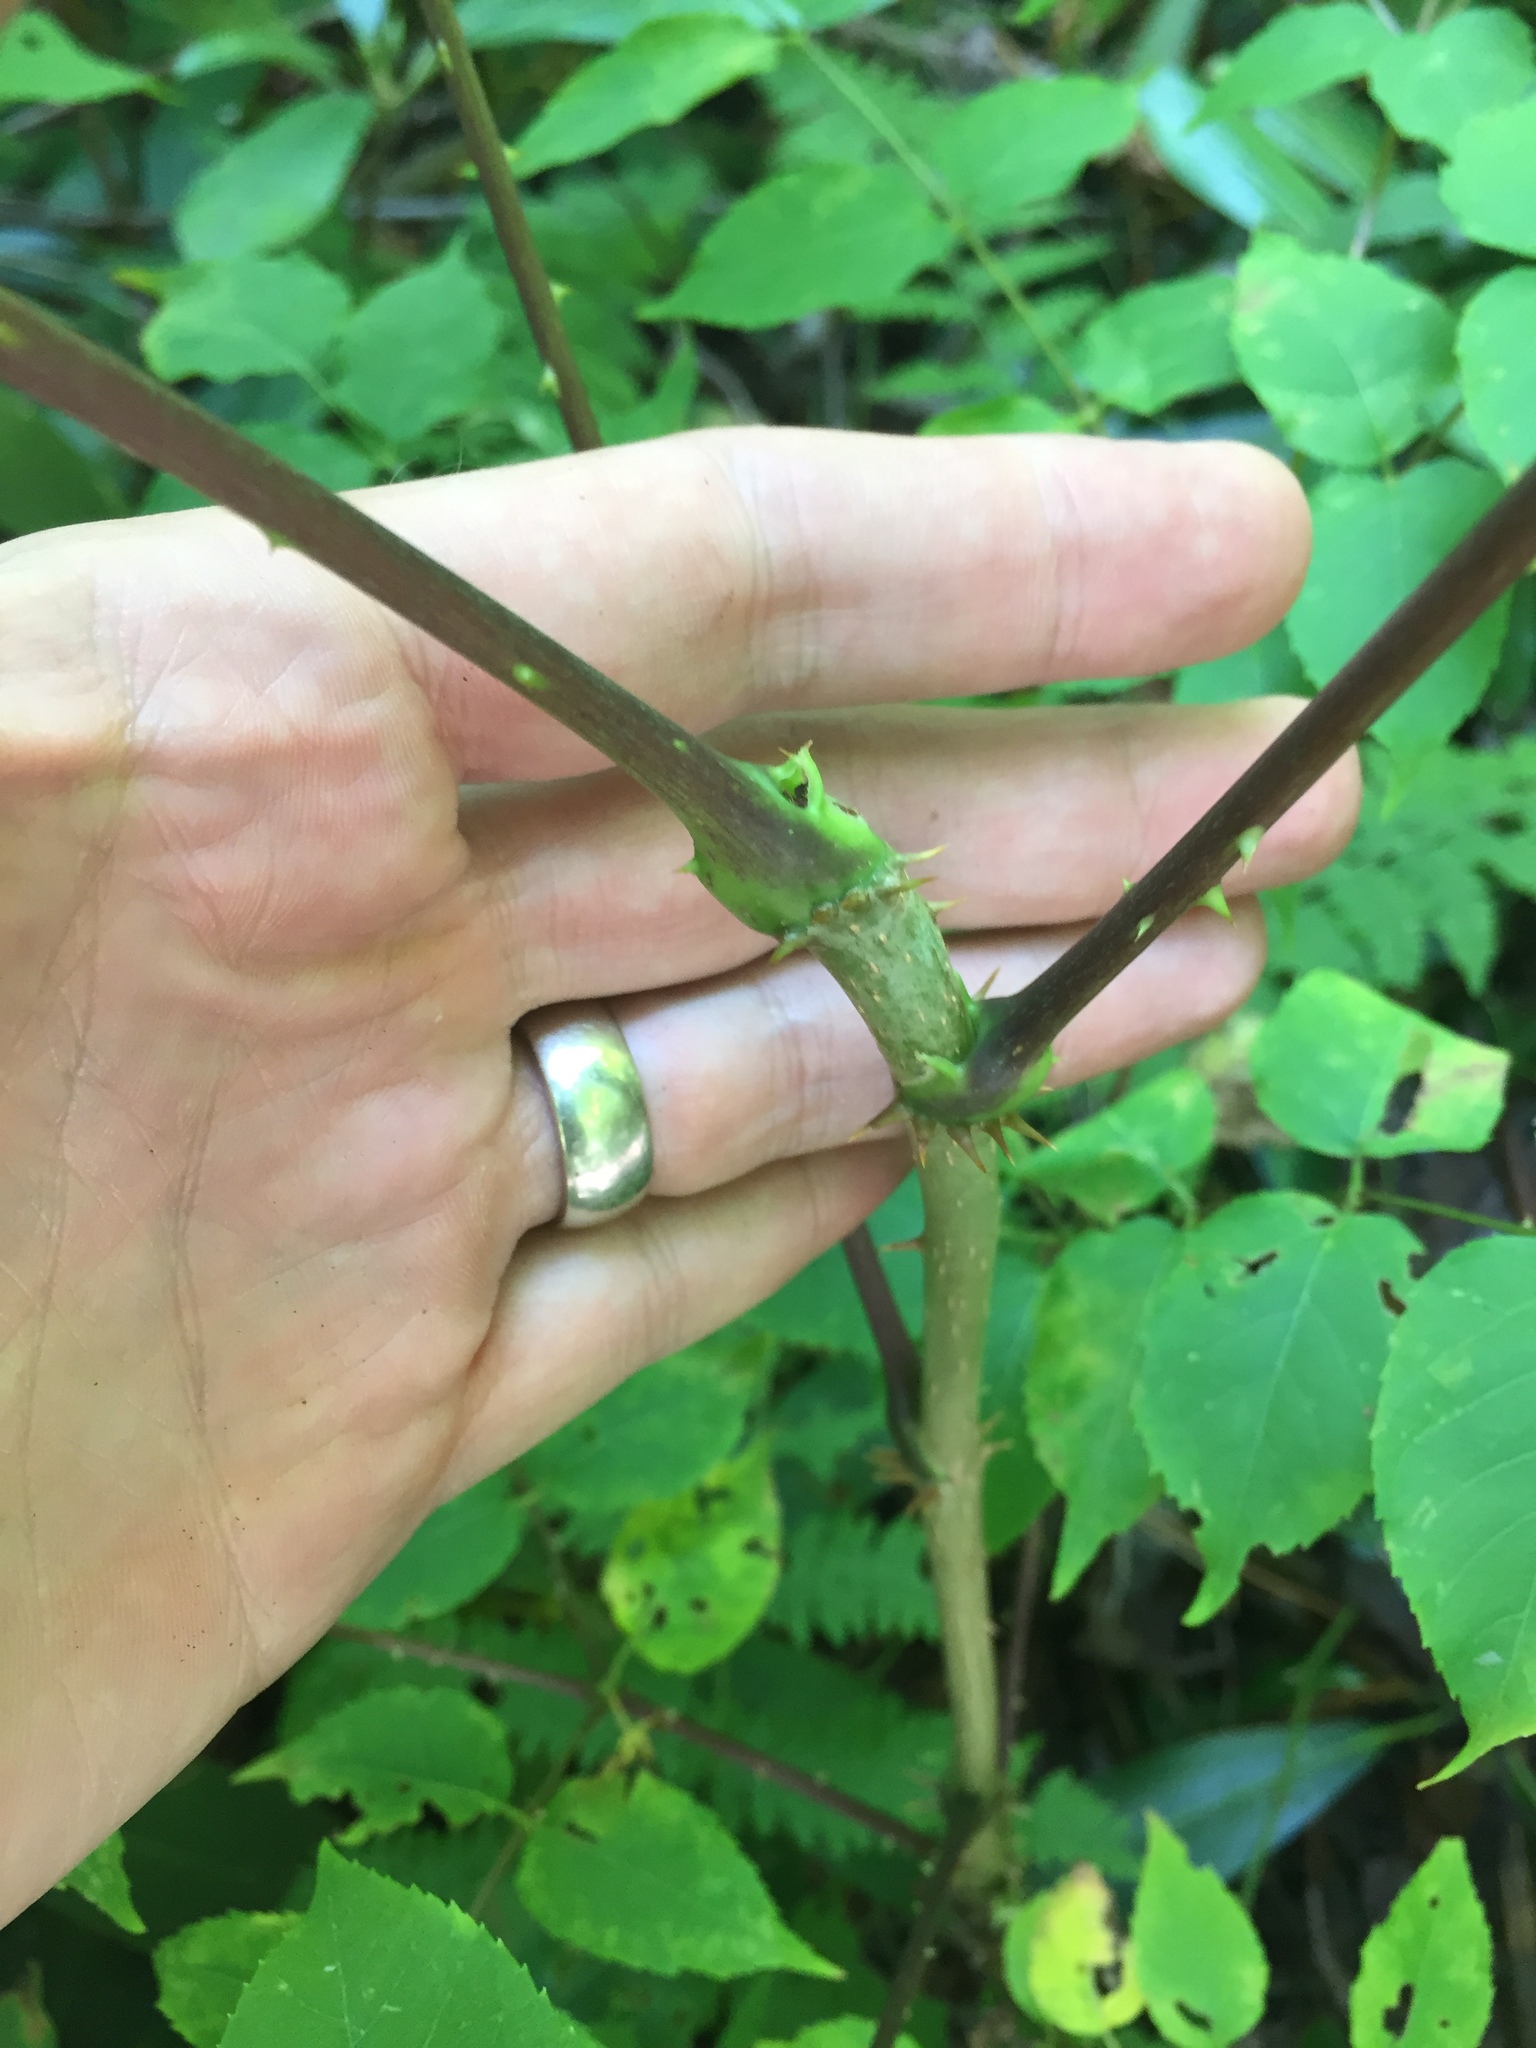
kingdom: Plantae
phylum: Tracheophyta
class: Magnoliopsida
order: Apiales
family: Araliaceae
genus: Aralia
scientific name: Aralia spinosa
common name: Hercules'-club
